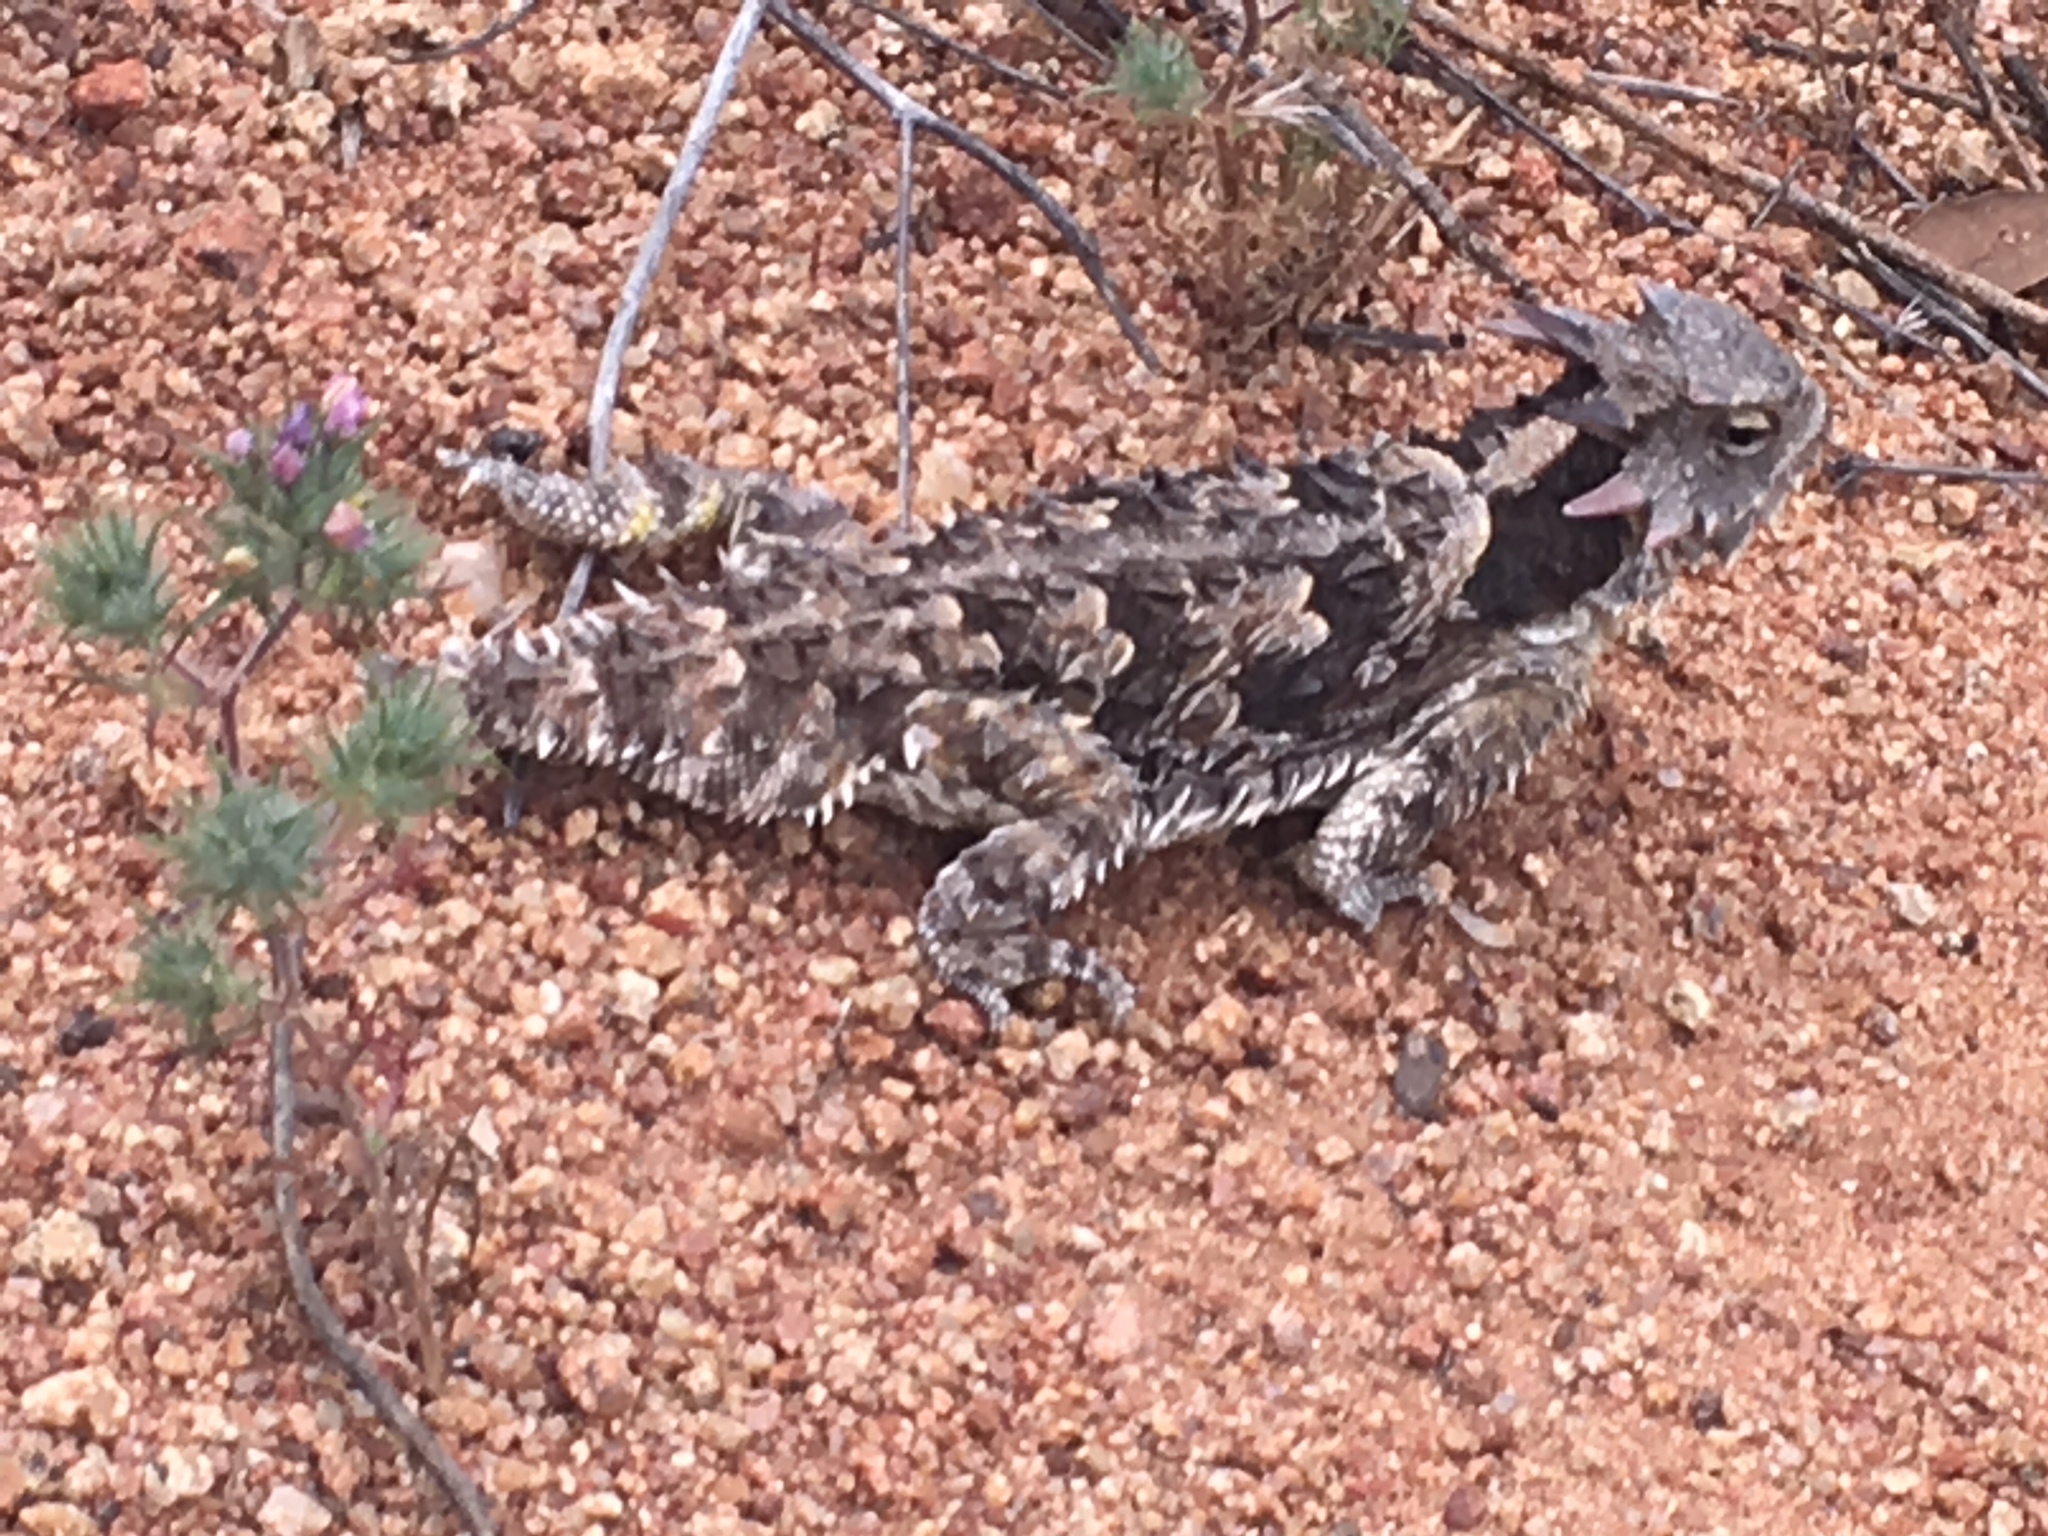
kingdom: Animalia
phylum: Chordata
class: Squamata
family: Phrynosomatidae
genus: Phrynosoma
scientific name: Phrynosoma blainvillii
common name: San diego horned lizard
